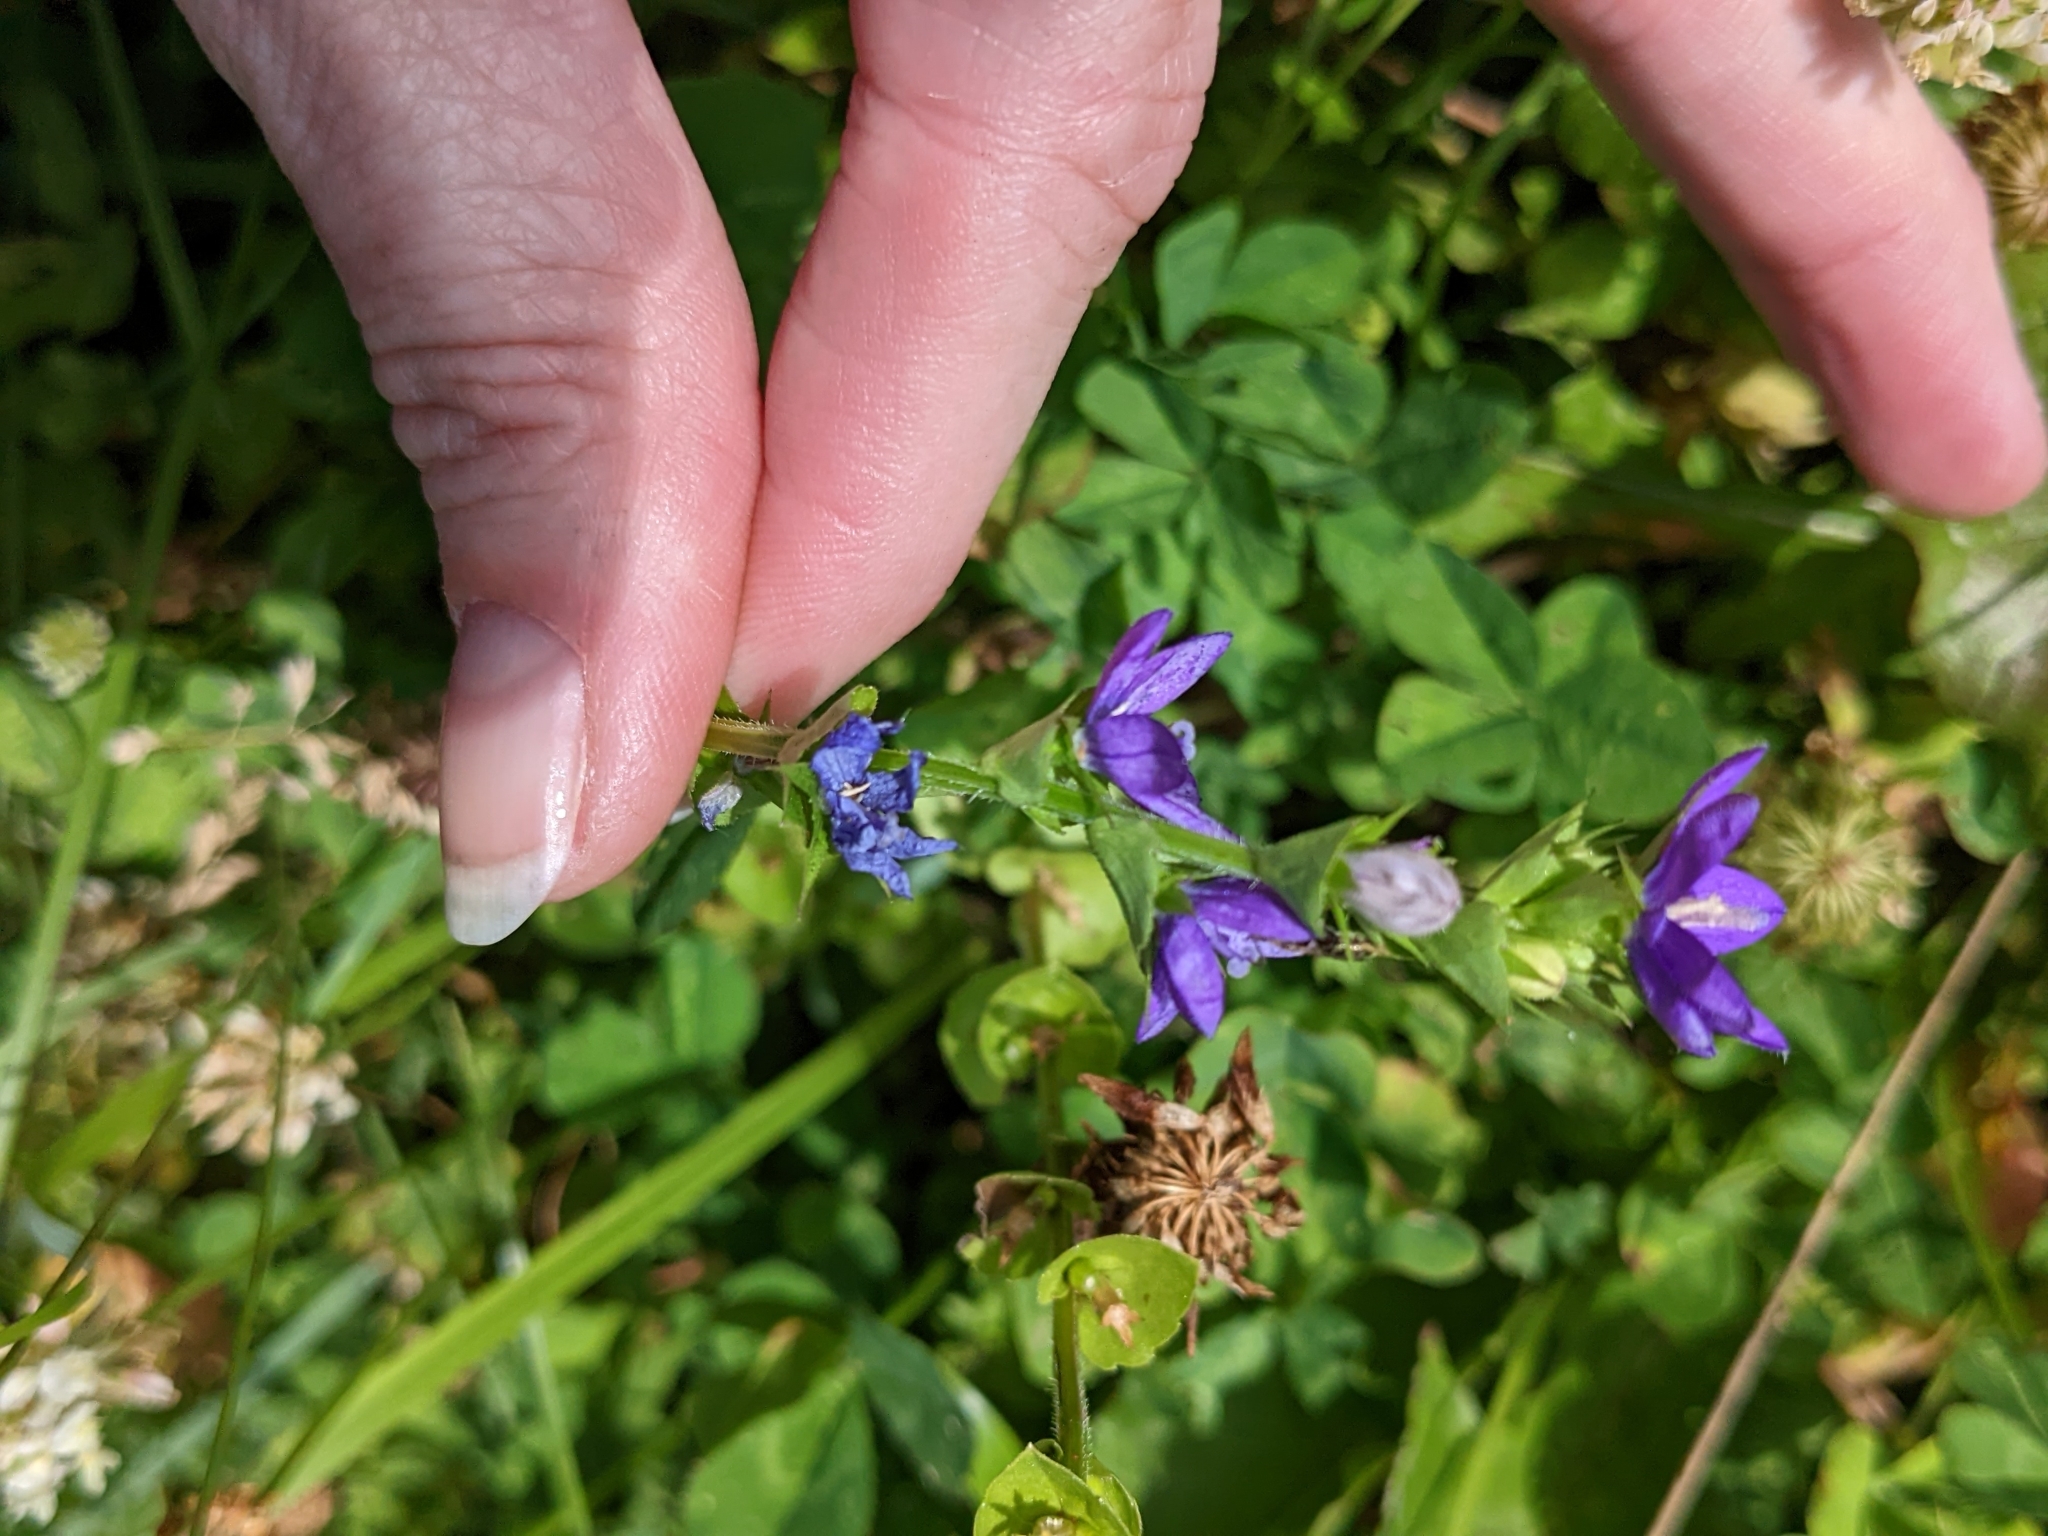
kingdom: Plantae
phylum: Tracheophyta
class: Magnoliopsida
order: Asterales
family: Campanulaceae
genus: Triodanis
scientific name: Triodanis perfoliata
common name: Clasping venus' looking-glass
